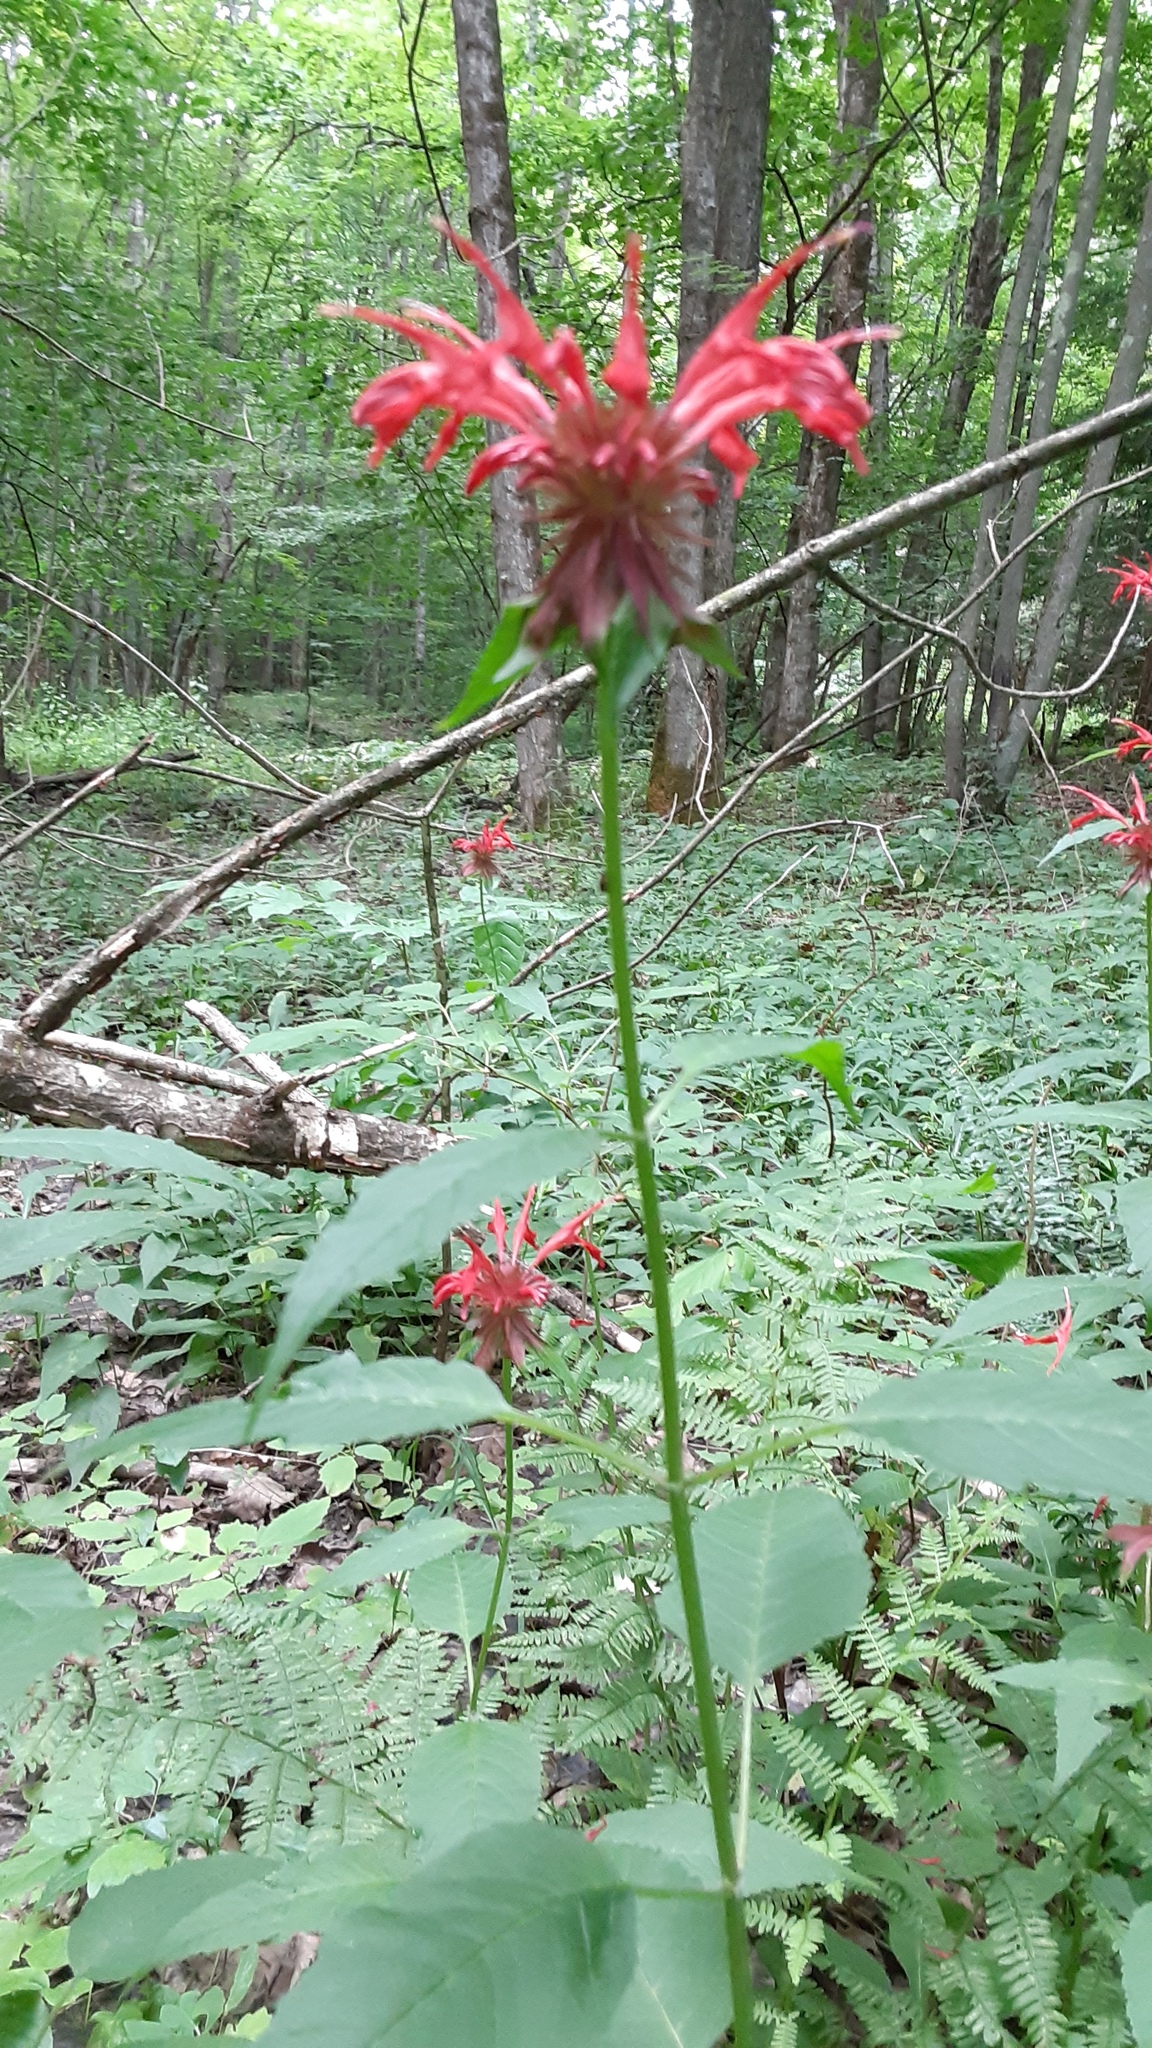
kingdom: Plantae
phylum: Tracheophyta
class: Magnoliopsida
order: Lamiales
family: Lamiaceae
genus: Monarda
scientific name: Monarda didyma
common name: Beebalm
